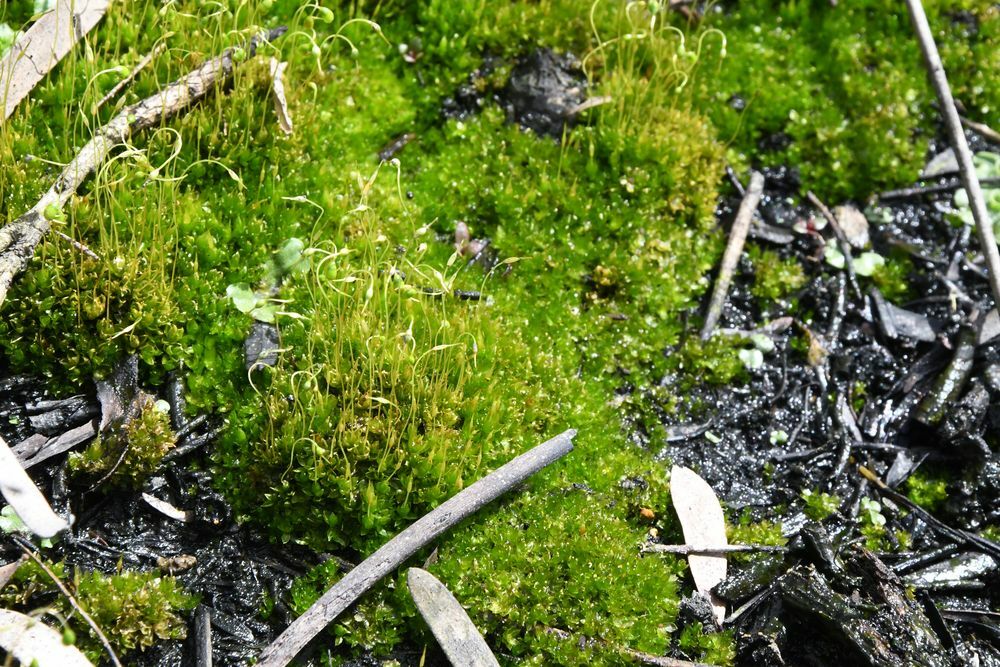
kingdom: Plantae
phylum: Bryophyta
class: Bryopsida
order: Funariales
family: Funariaceae
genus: Funaria
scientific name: Funaria hygrometrica
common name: Common cord moss
